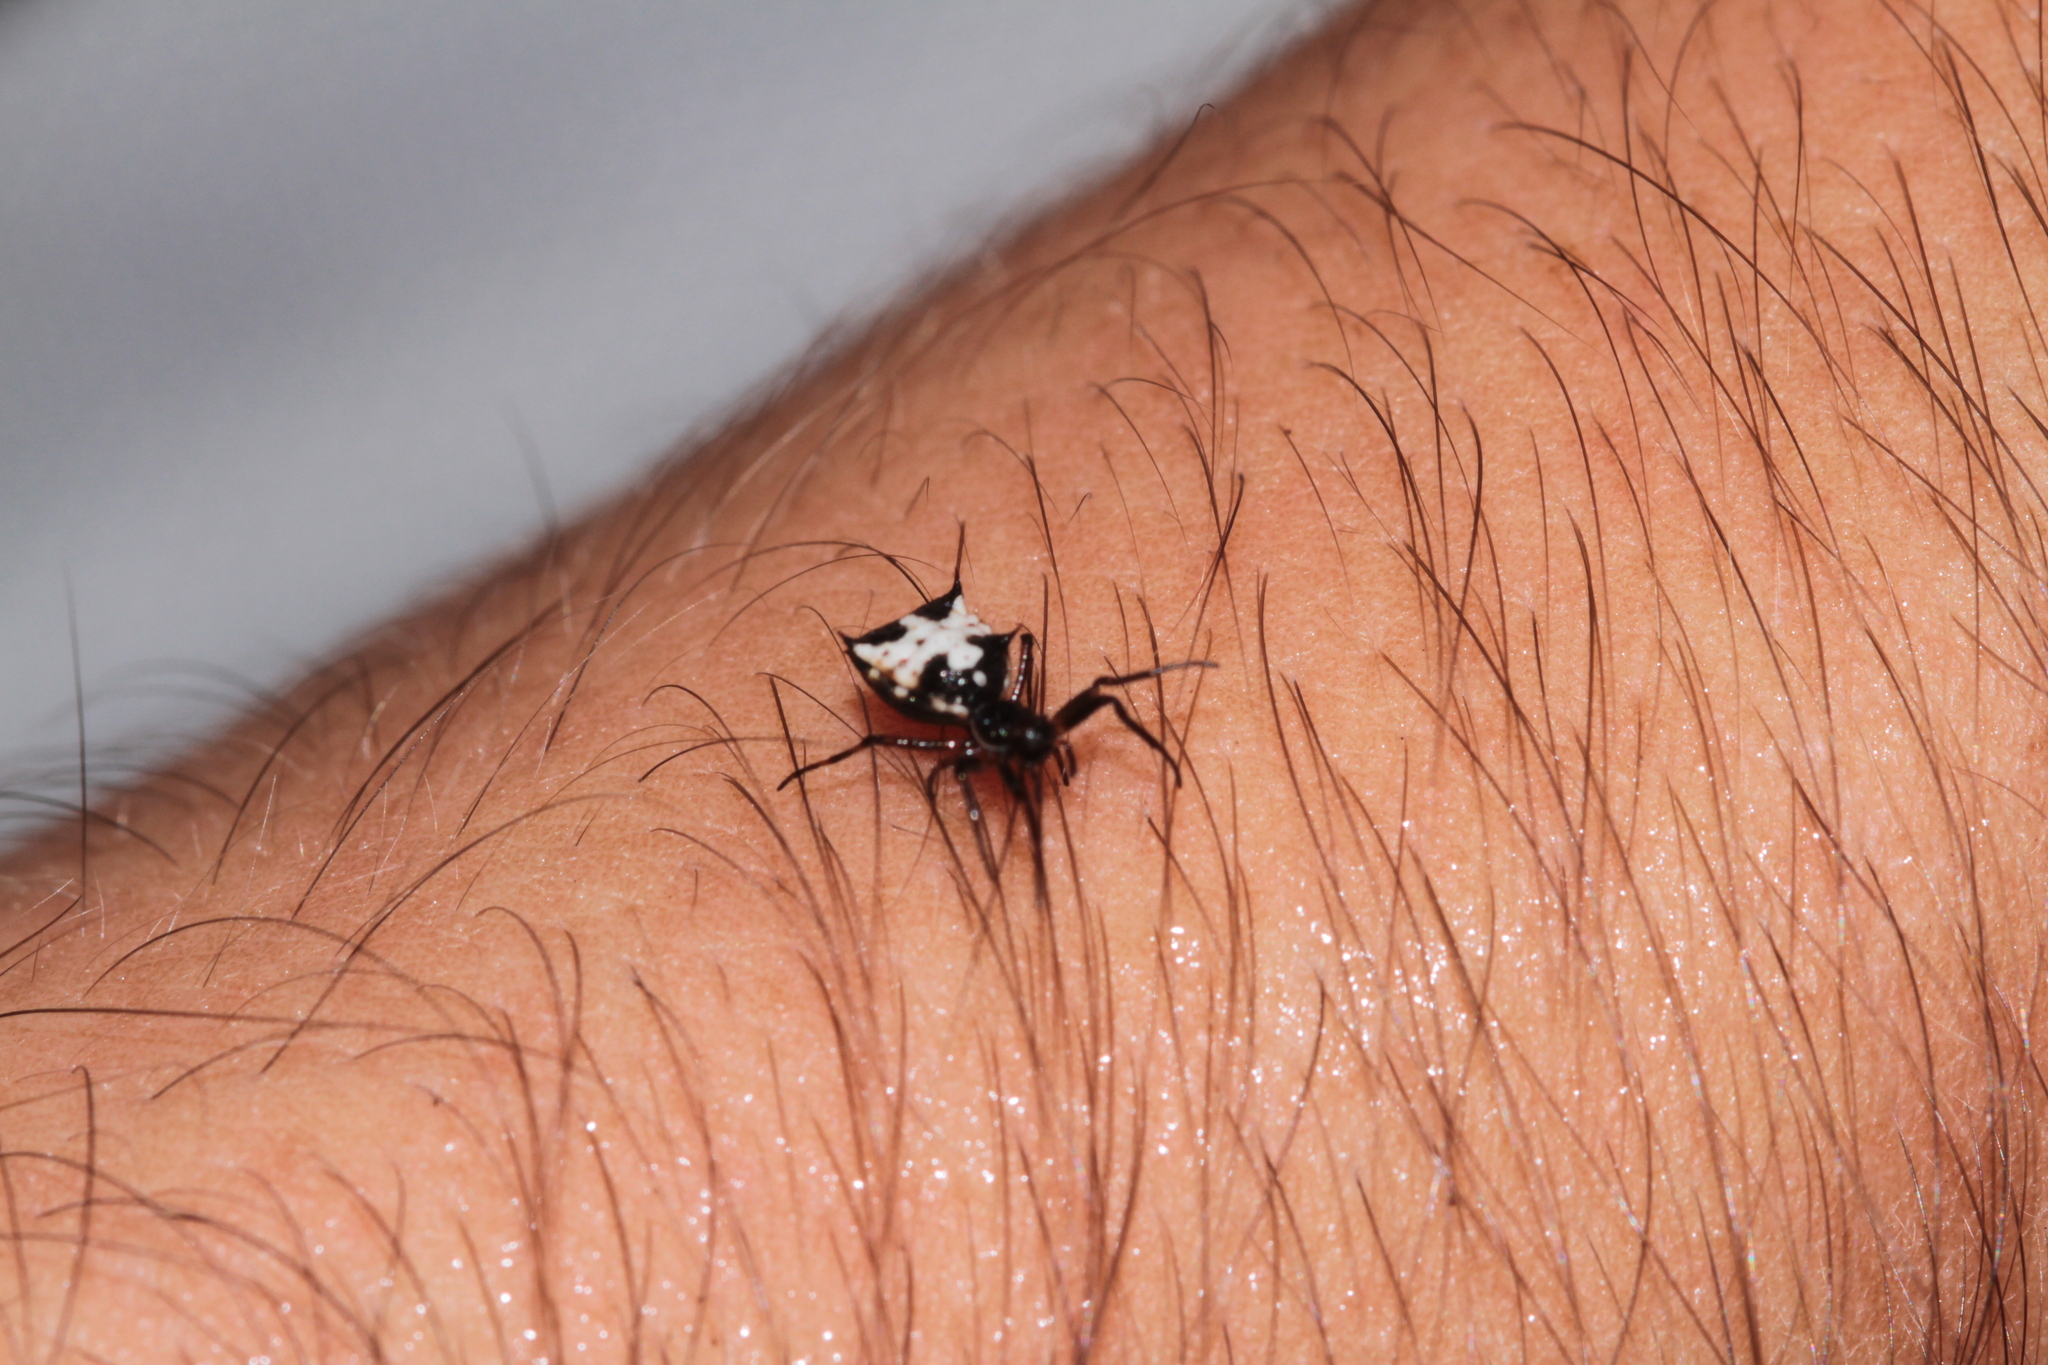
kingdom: Animalia
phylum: Arthropoda
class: Arachnida
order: Araneae
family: Araneidae
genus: Micrathena
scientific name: Micrathena aureola
